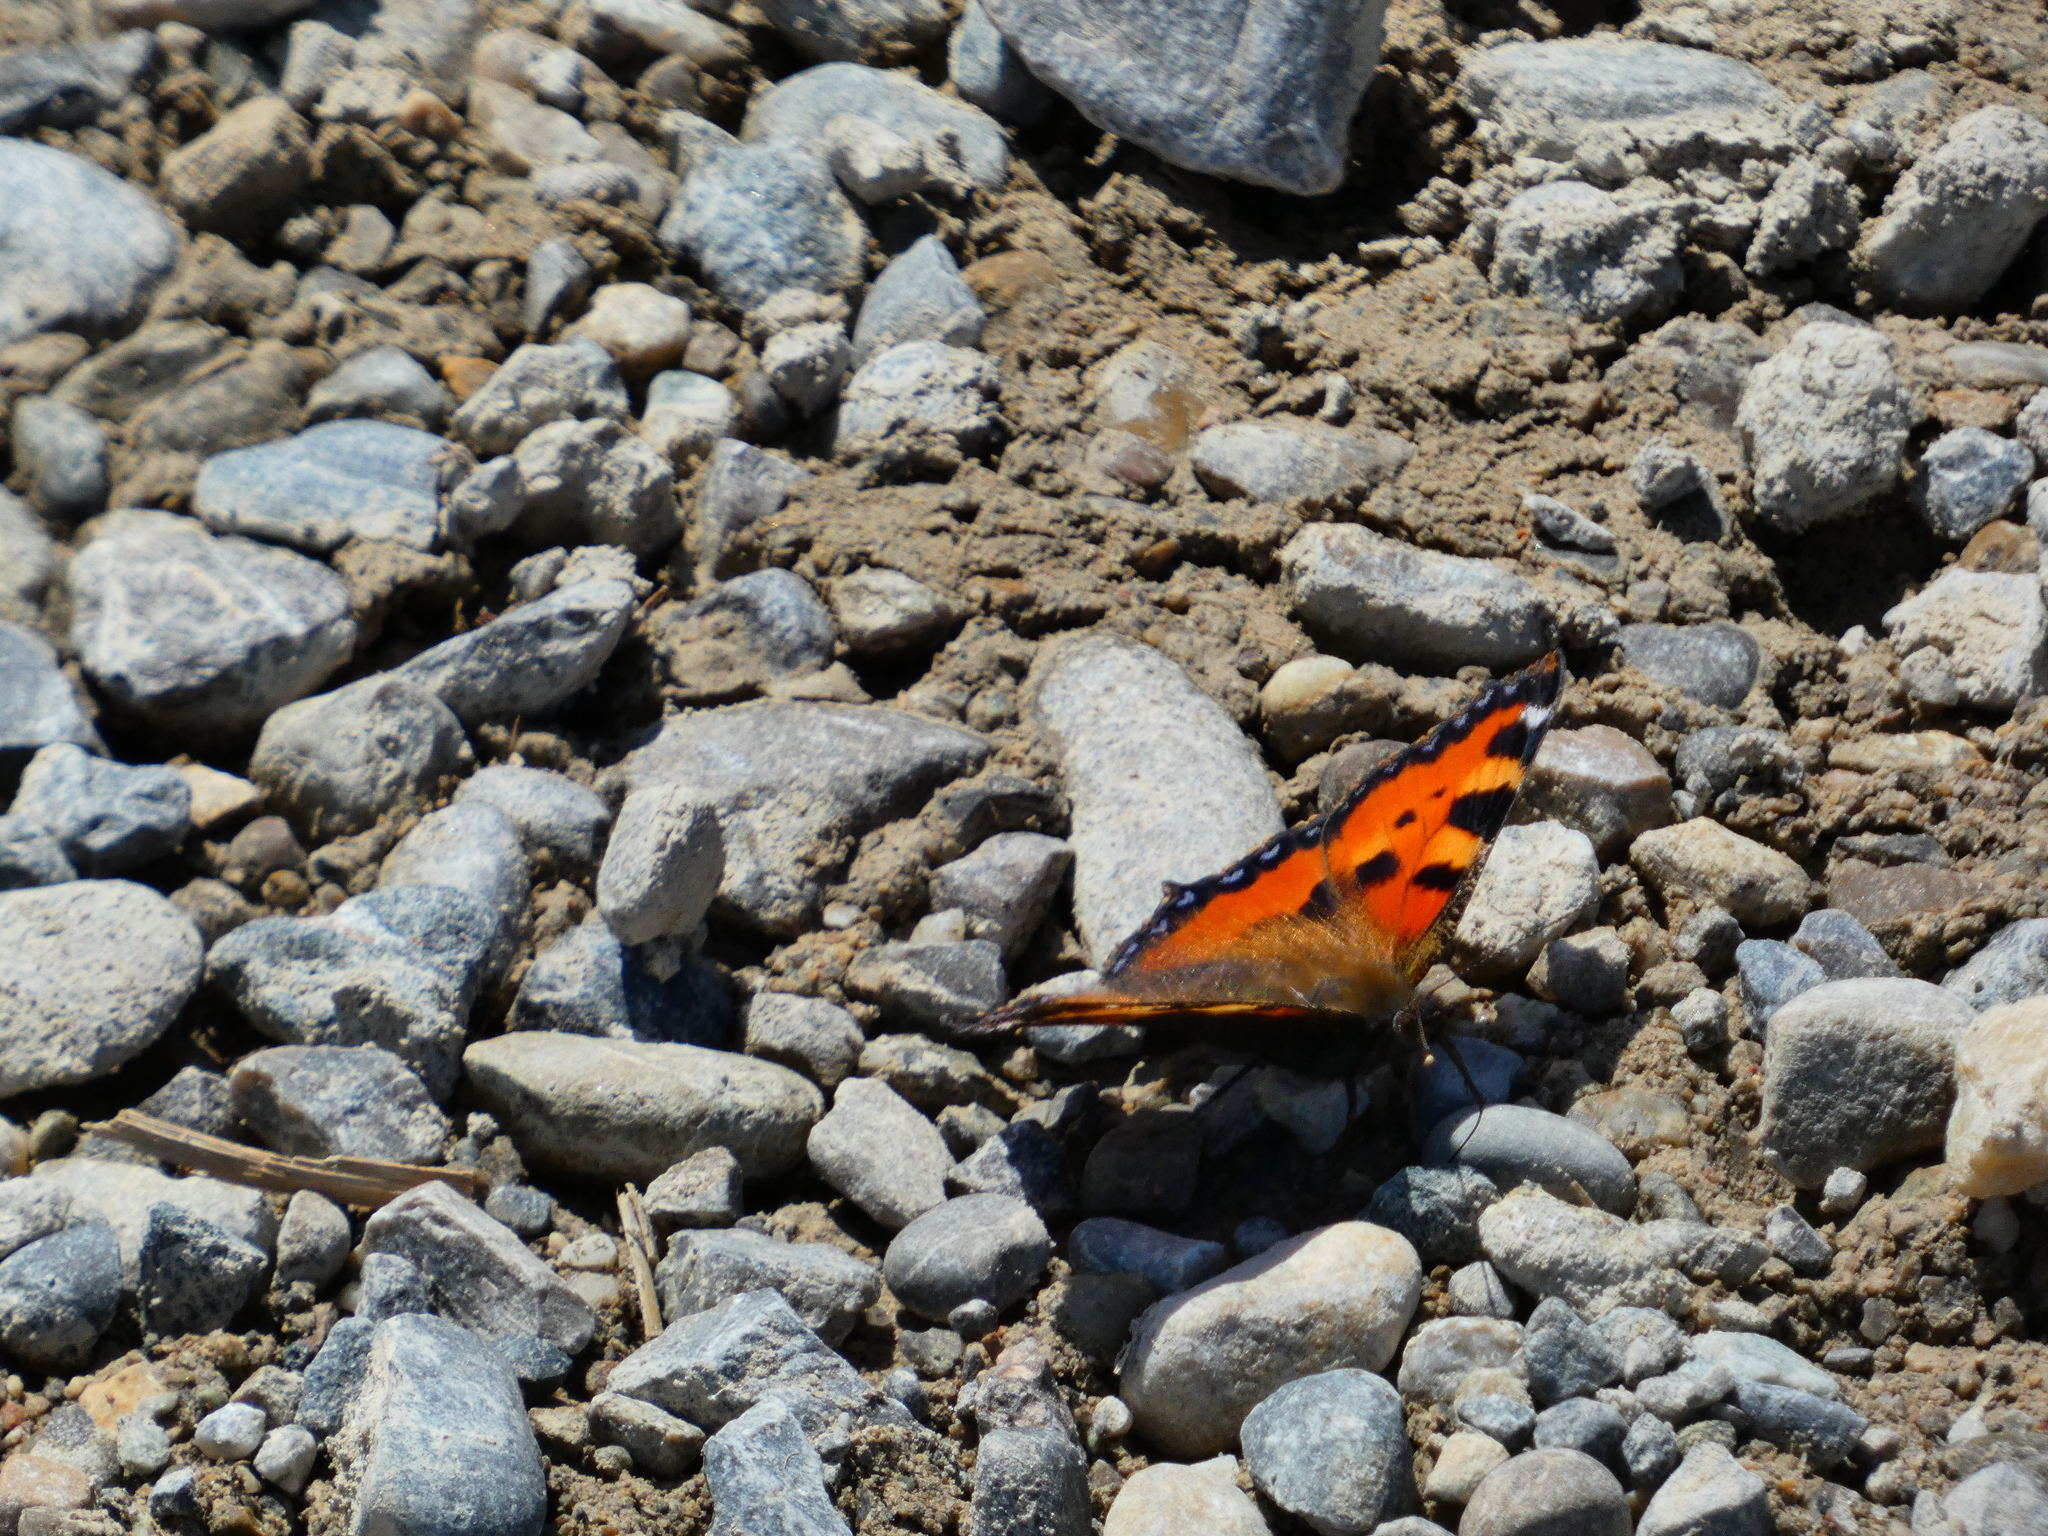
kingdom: Animalia
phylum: Arthropoda
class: Insecta
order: Lepidoptera
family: Nymphalidae
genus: Aglais
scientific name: Aglais urticae
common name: Small tortoiseshell
